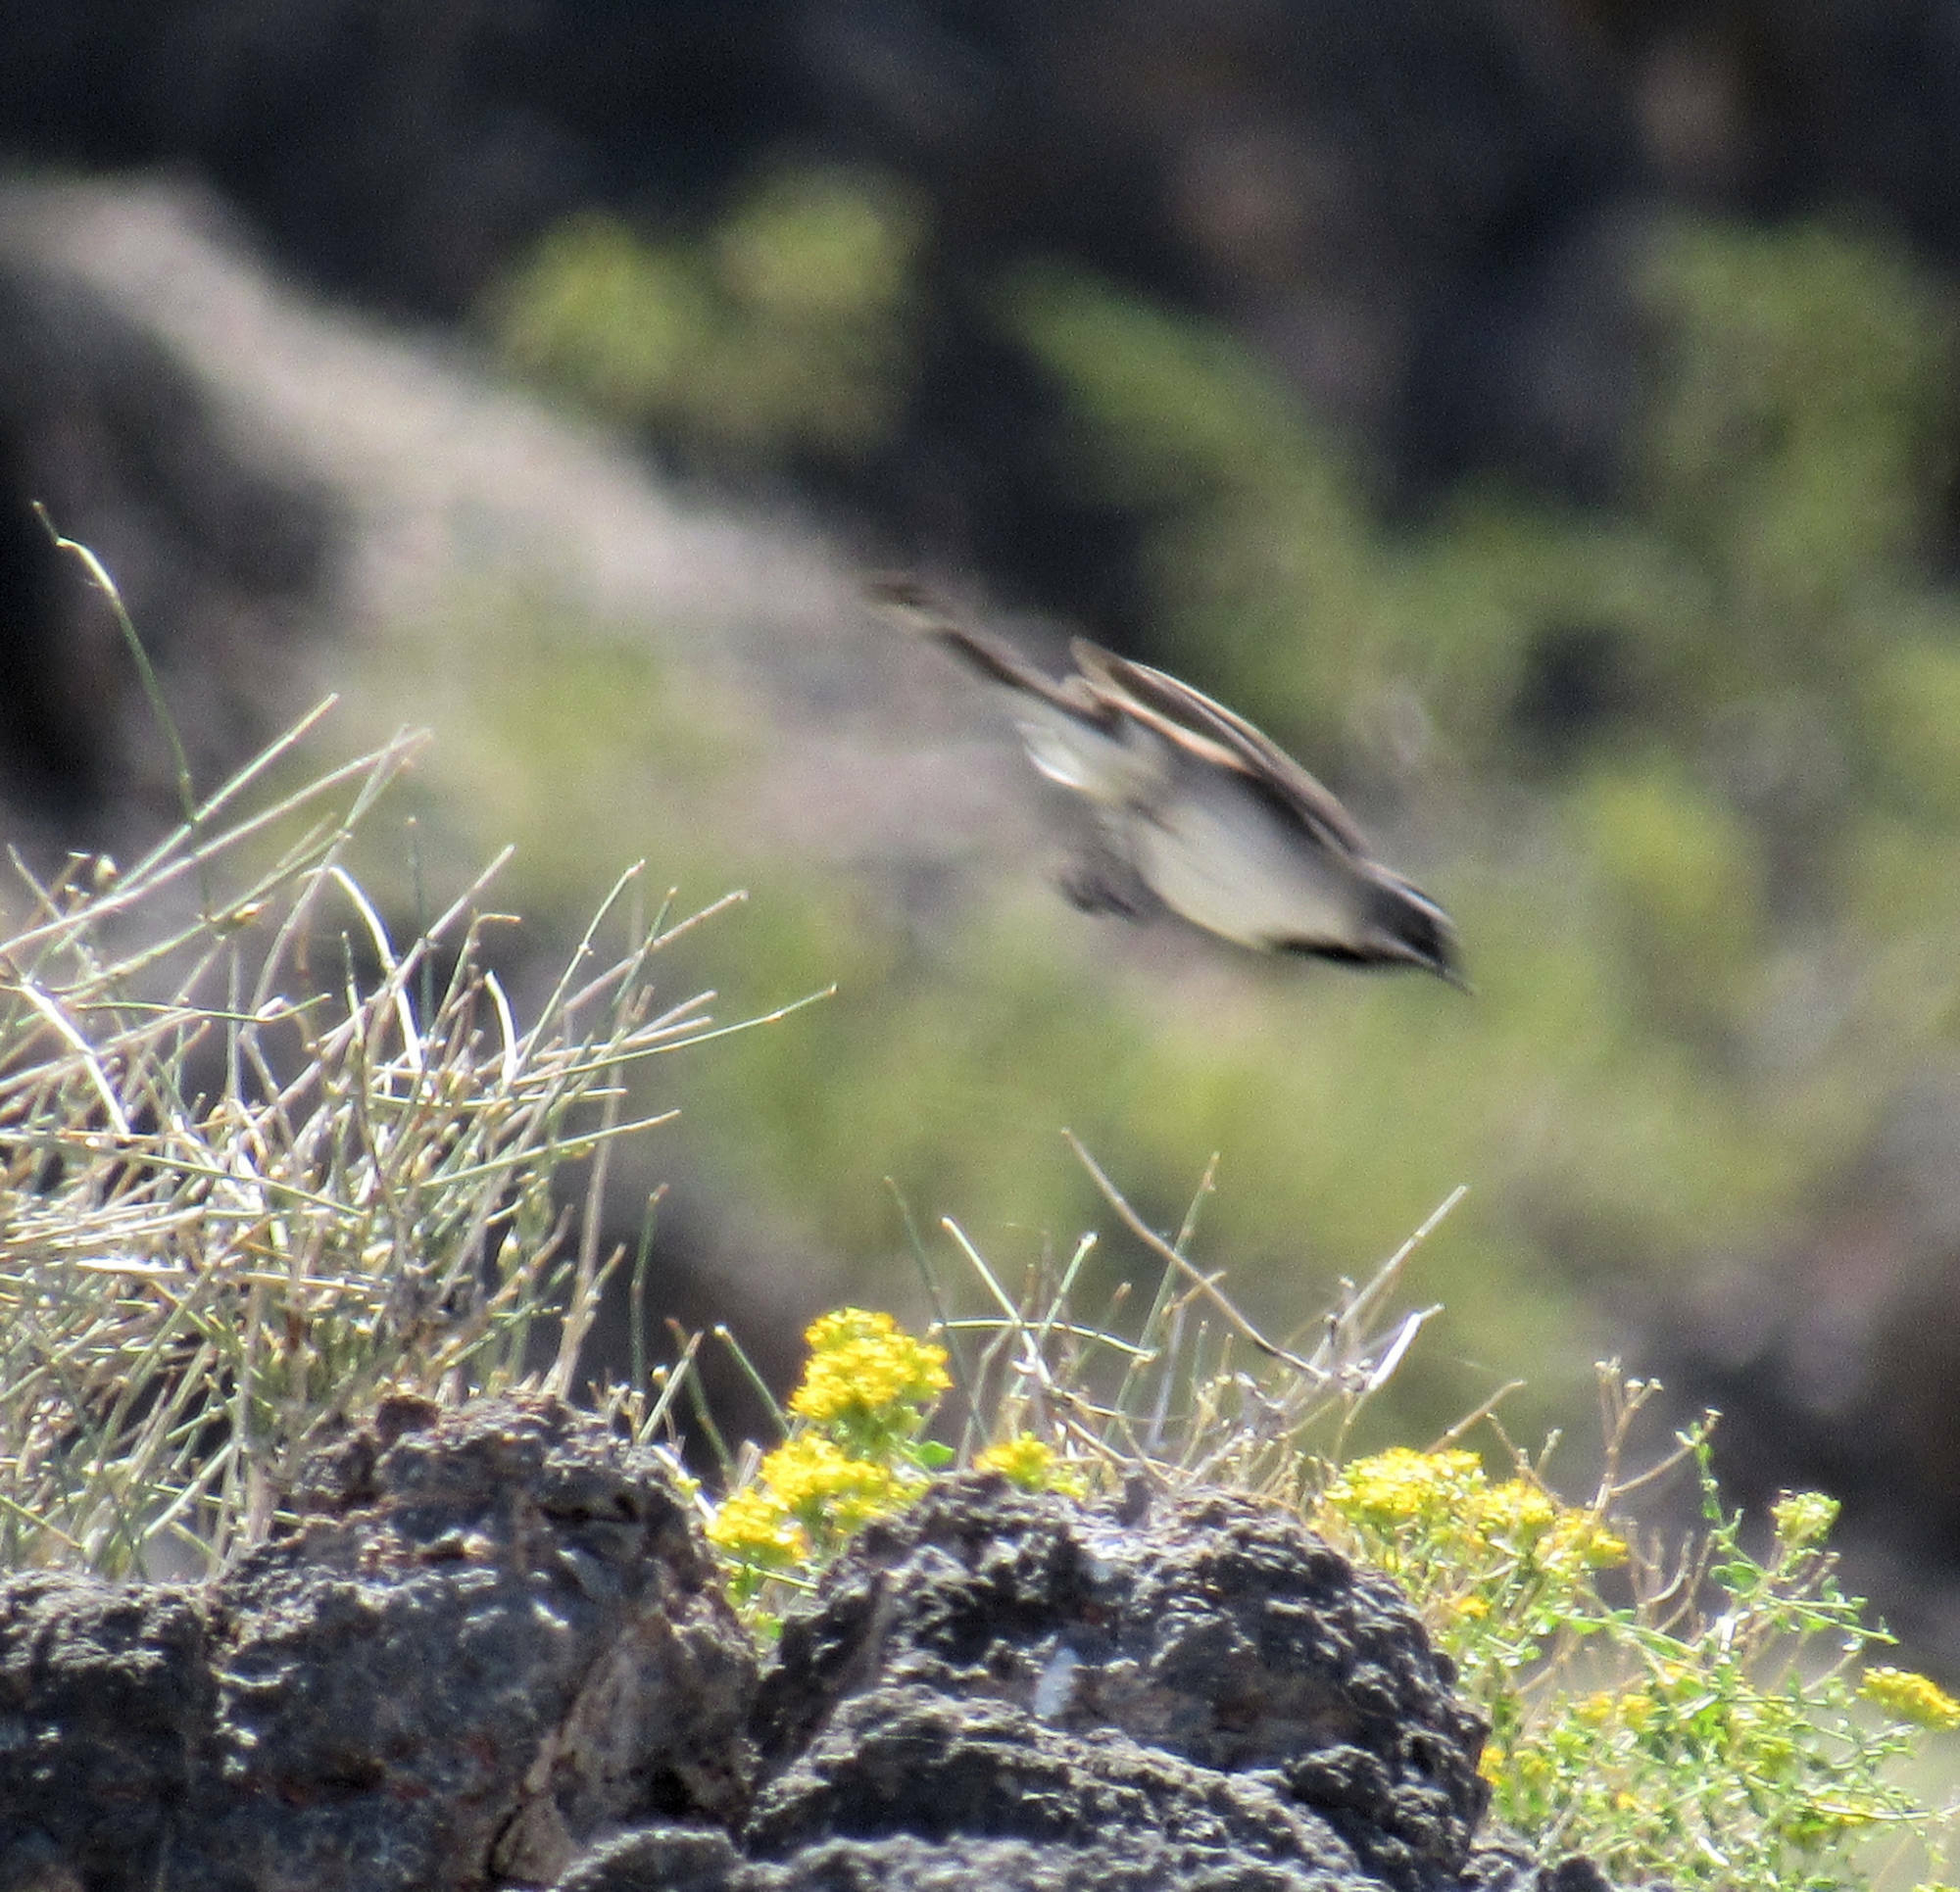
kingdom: Animalia
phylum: Chordata
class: Aves
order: Passeriformes
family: Passerellidae
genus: Amphispiza
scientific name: Amphispiza bilineata
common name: Black-throated sparrow
